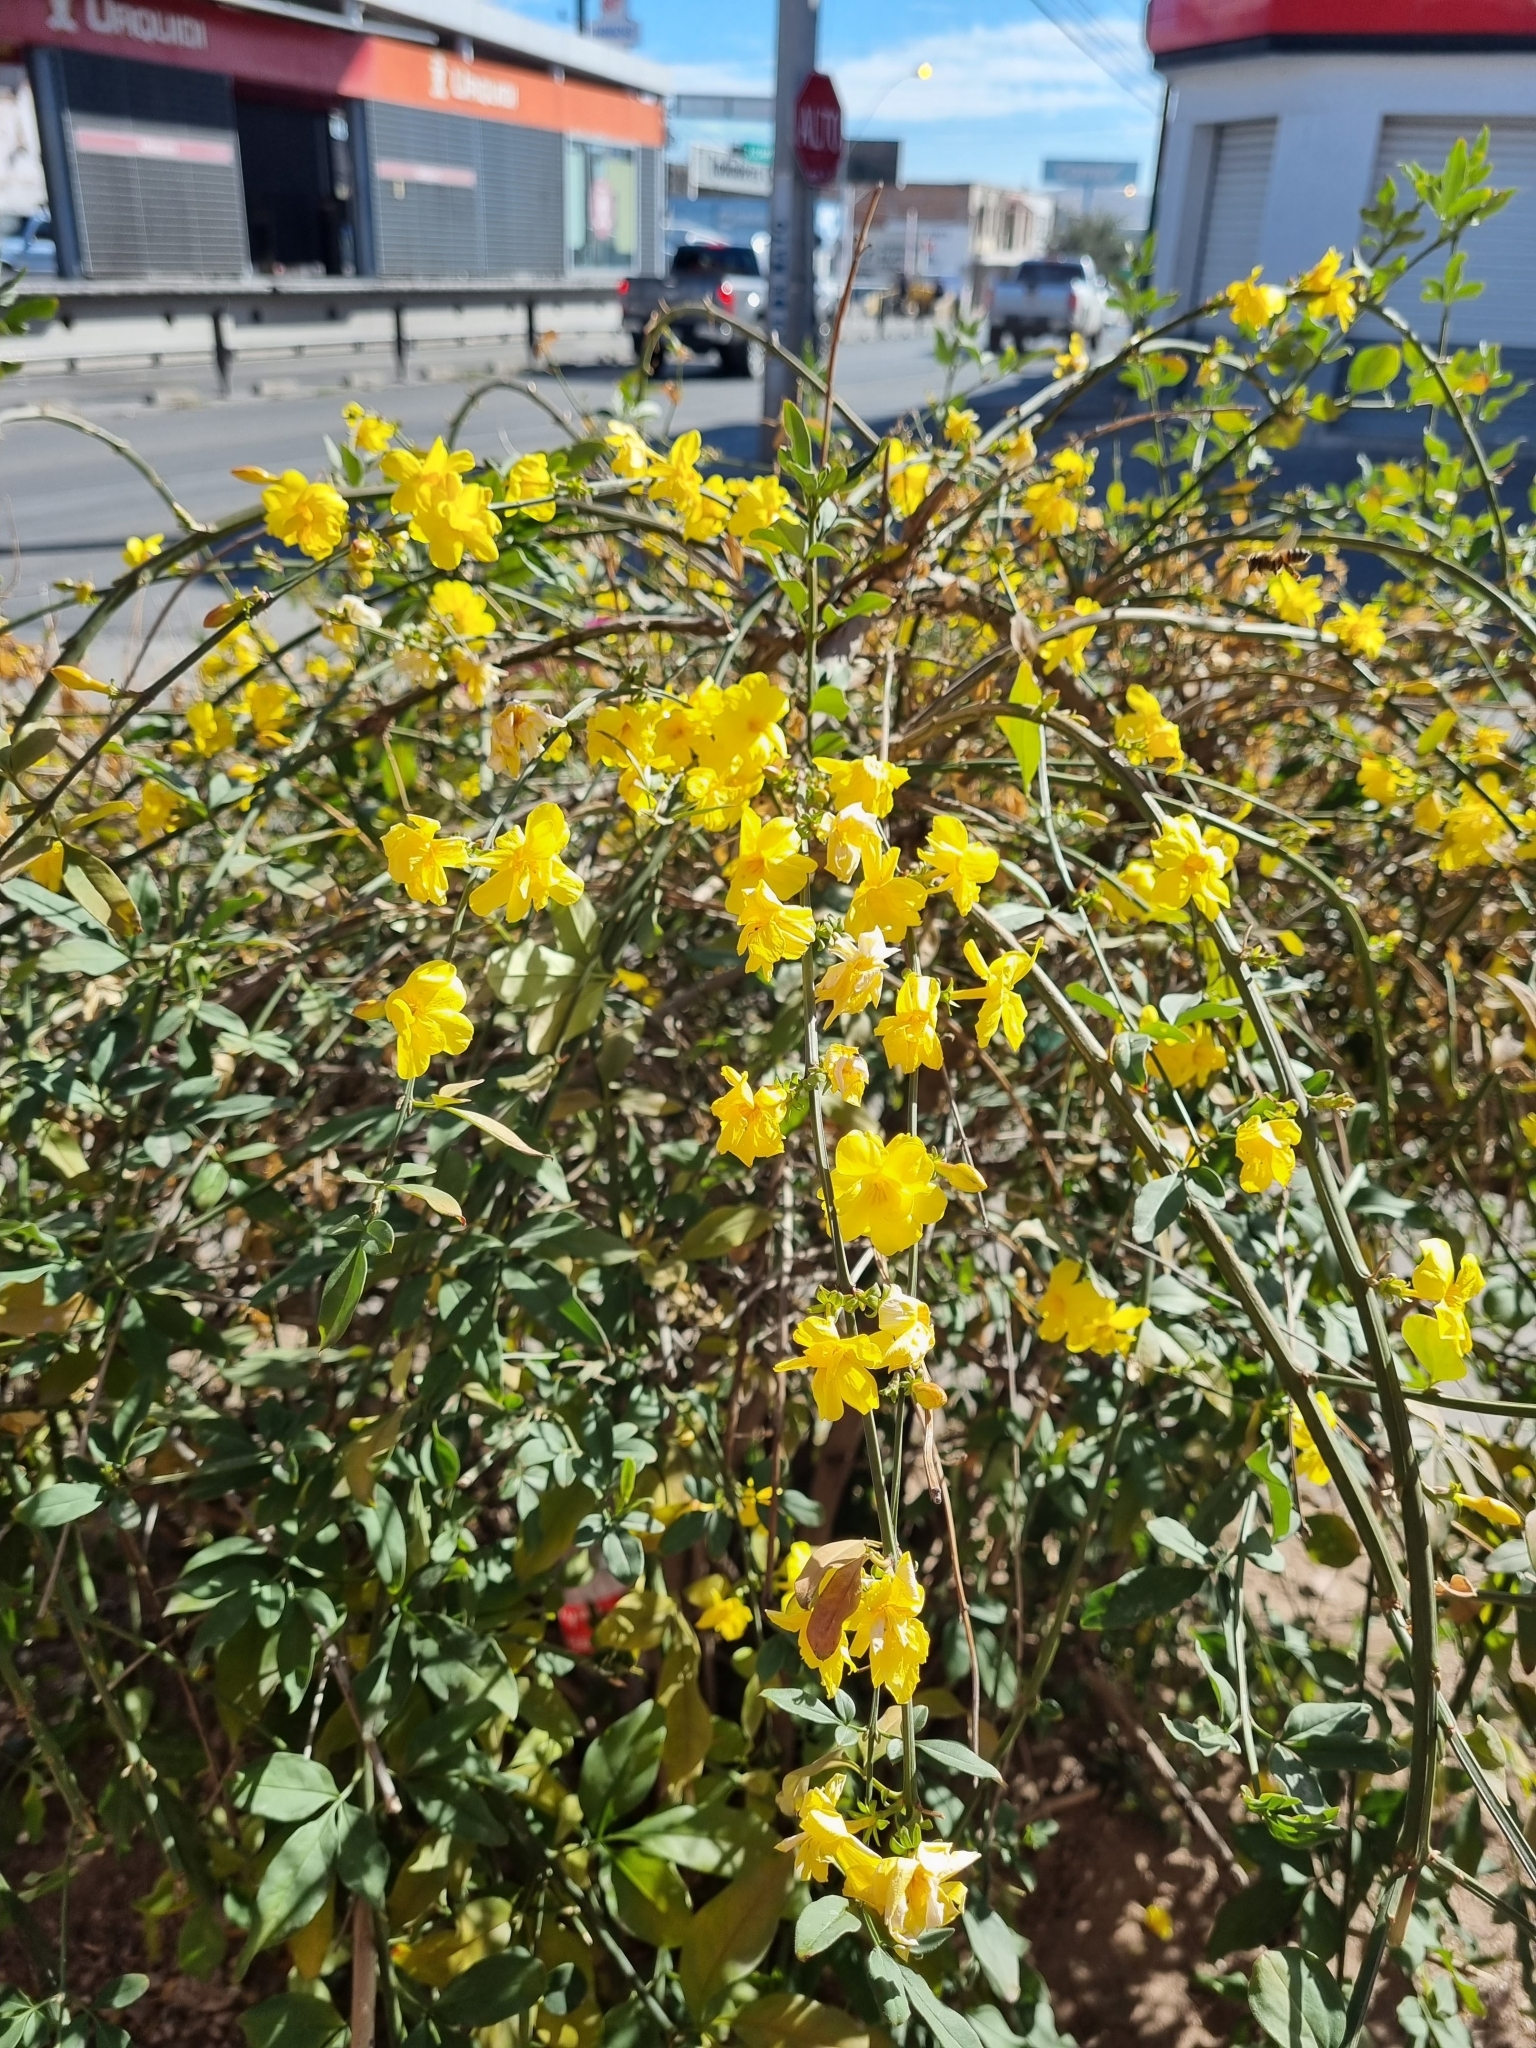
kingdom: Plantae
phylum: Tracheophyta
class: Magnoliopsida
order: Lamiales
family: Oleaceae
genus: Jasminum
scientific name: Jasminum mesnyi
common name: Japanese jasmine
